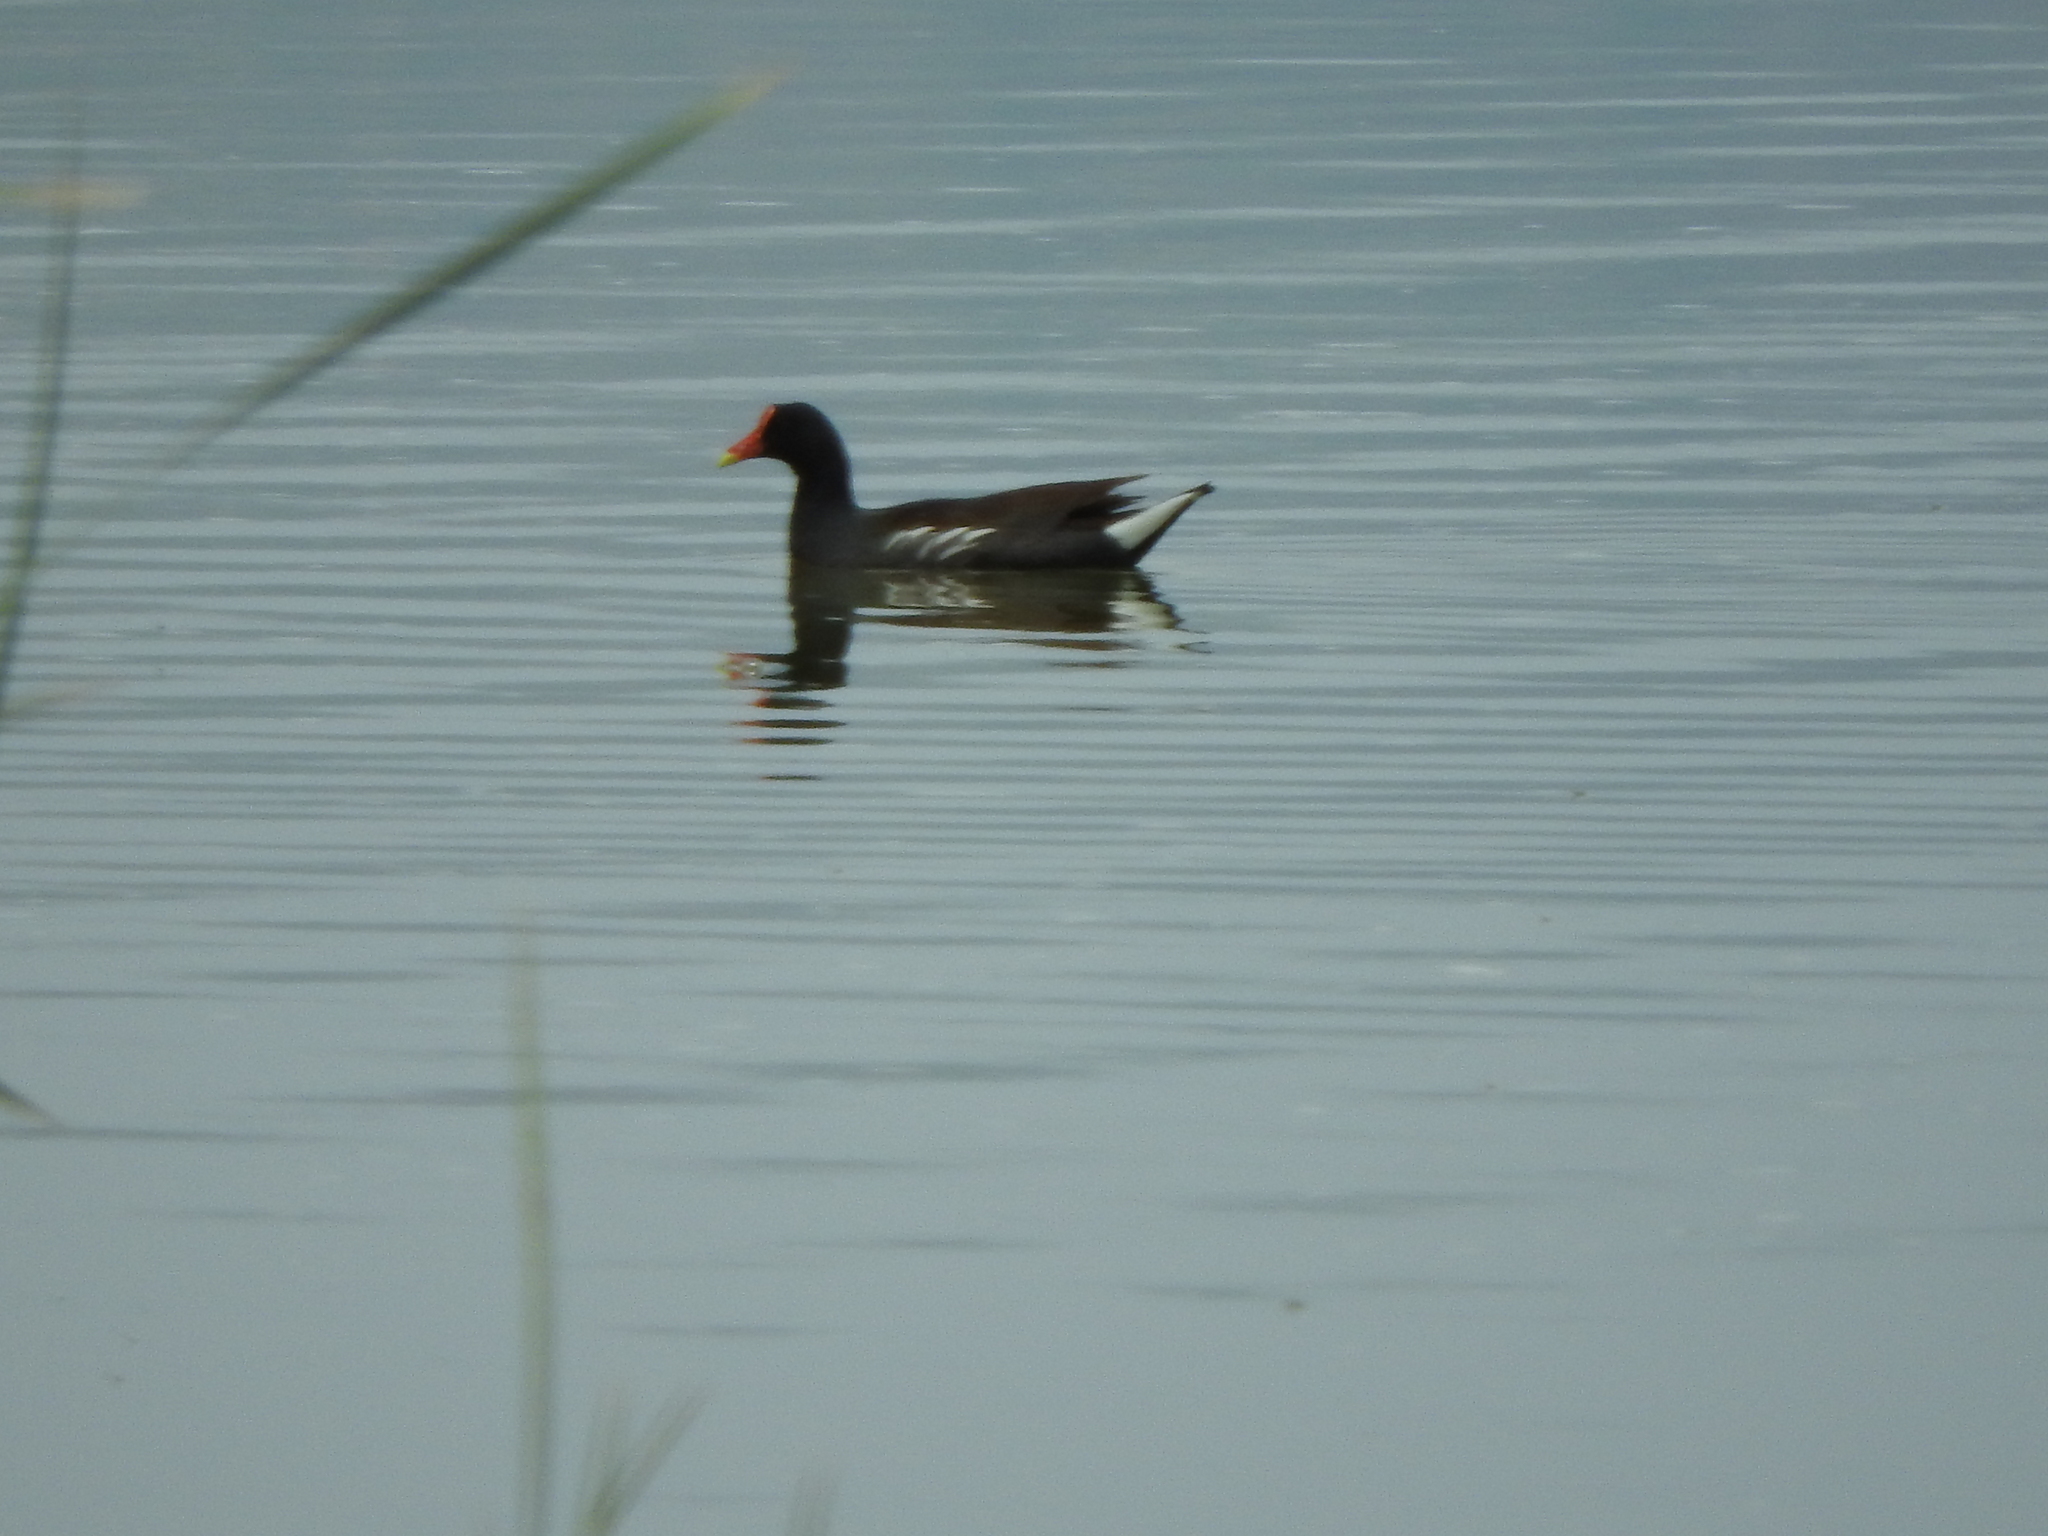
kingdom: Animalia
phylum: Chordata
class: Aves
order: Gruiformes
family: Rallidae
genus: Gallinula
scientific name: Gallinula chloropus
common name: Common moorhen
